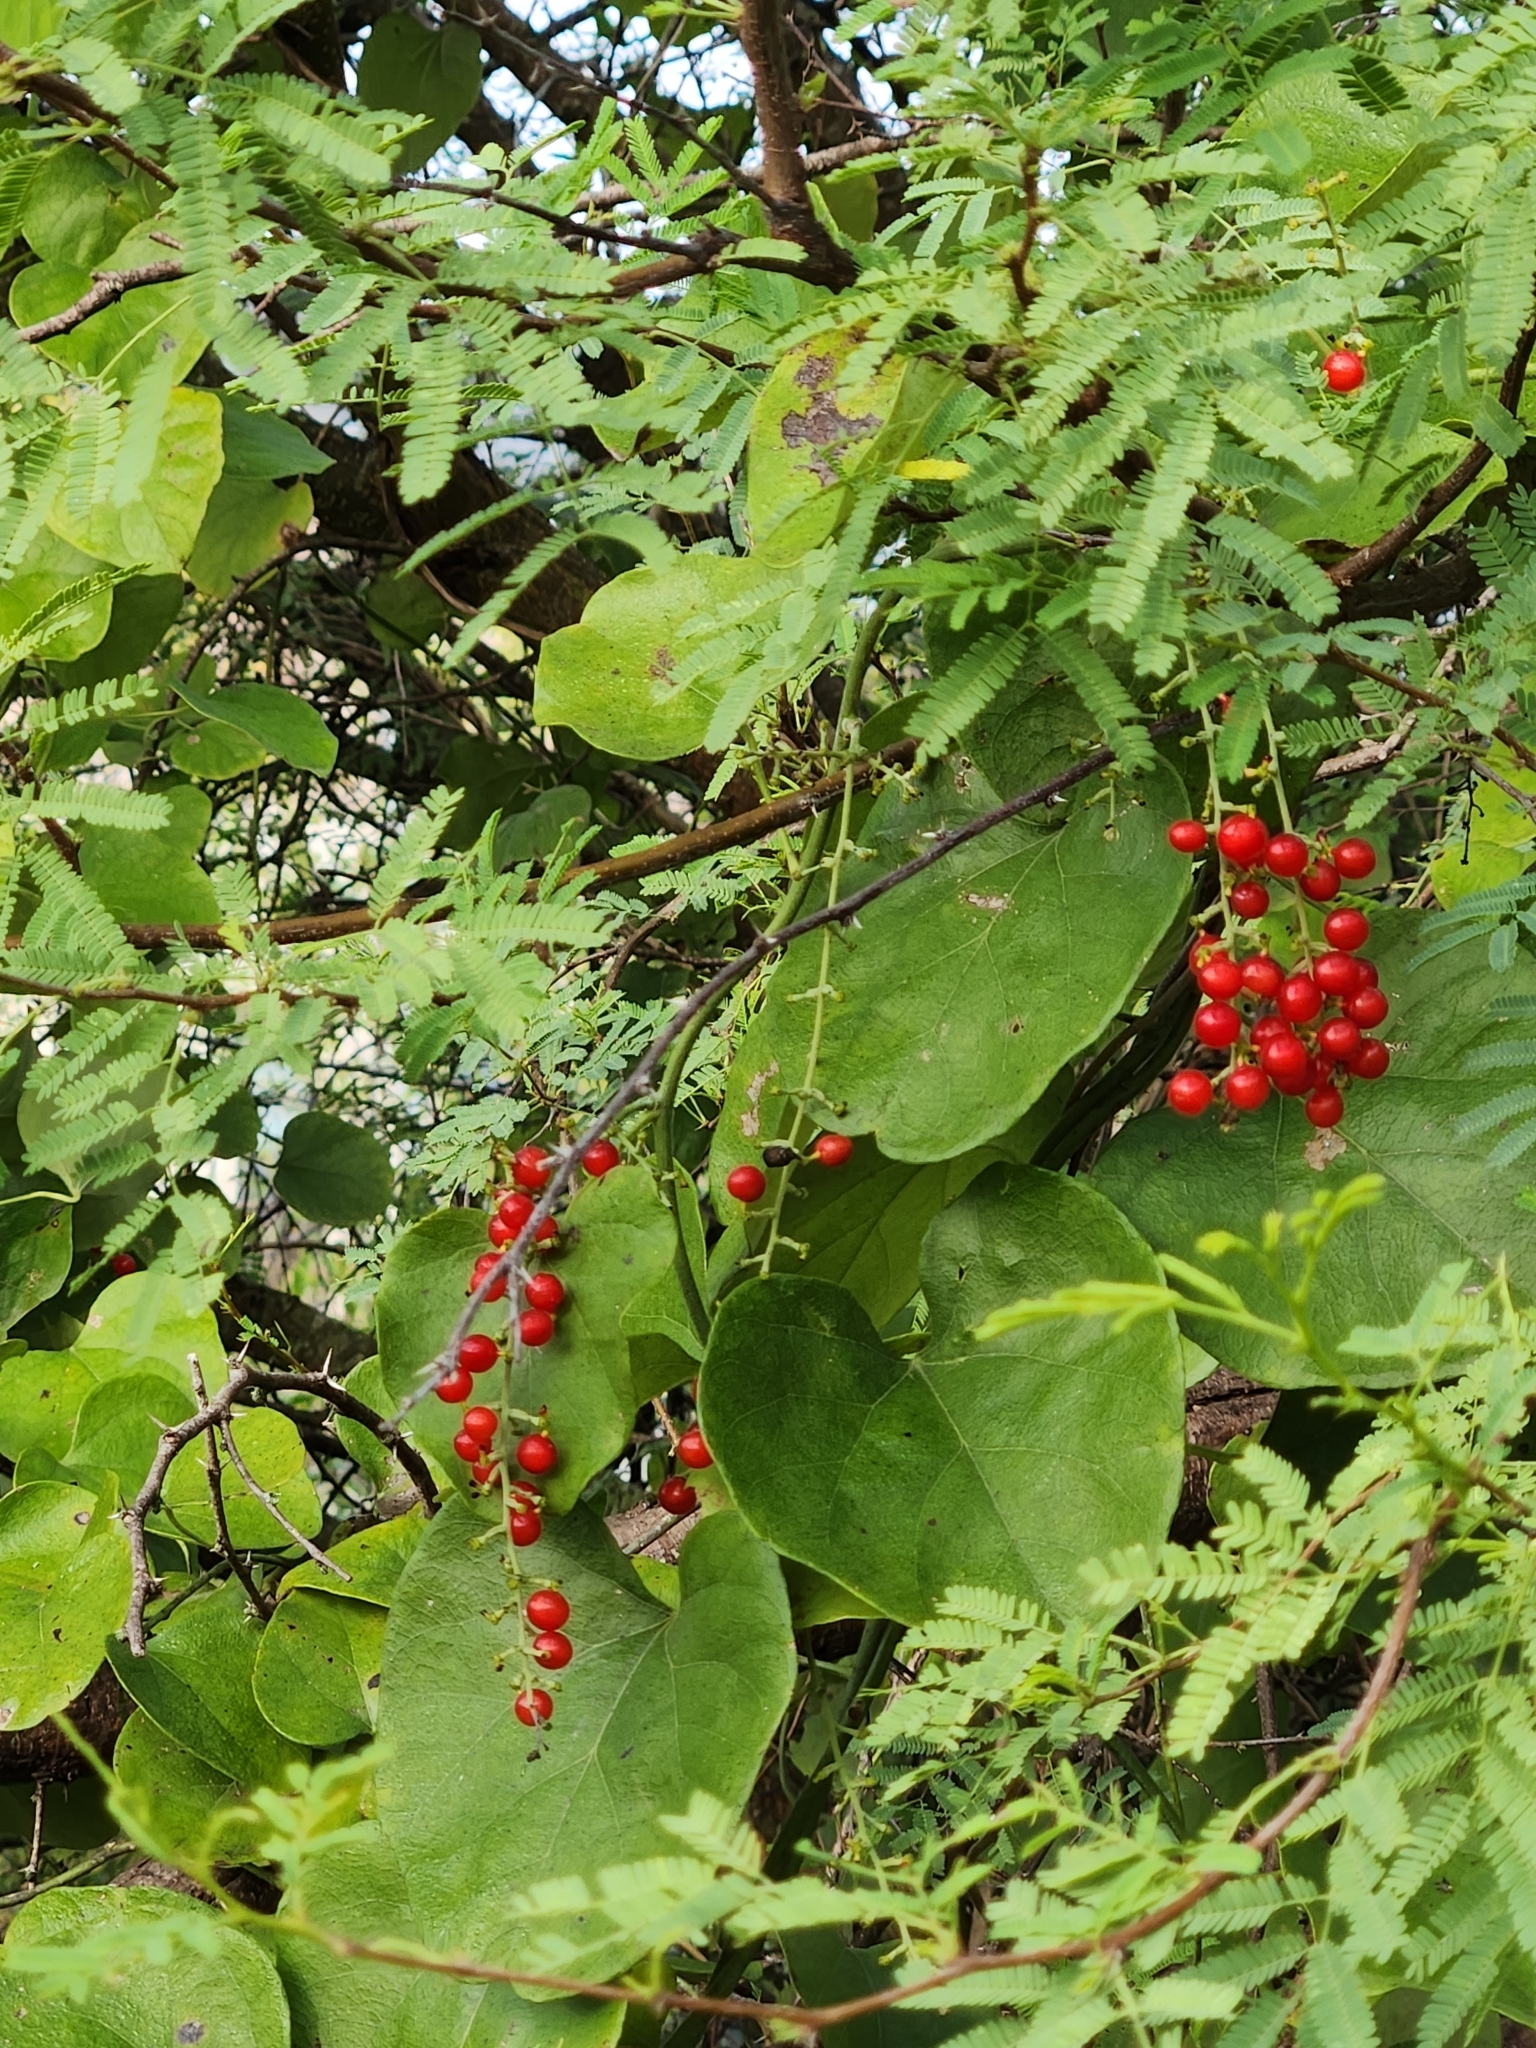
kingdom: Plantae
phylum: Tracheophyta
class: Magnoliopsida
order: Ranunculales
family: Menispermaceae
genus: Cocculus
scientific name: Cocculus carolinus
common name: Carolina moonseed
